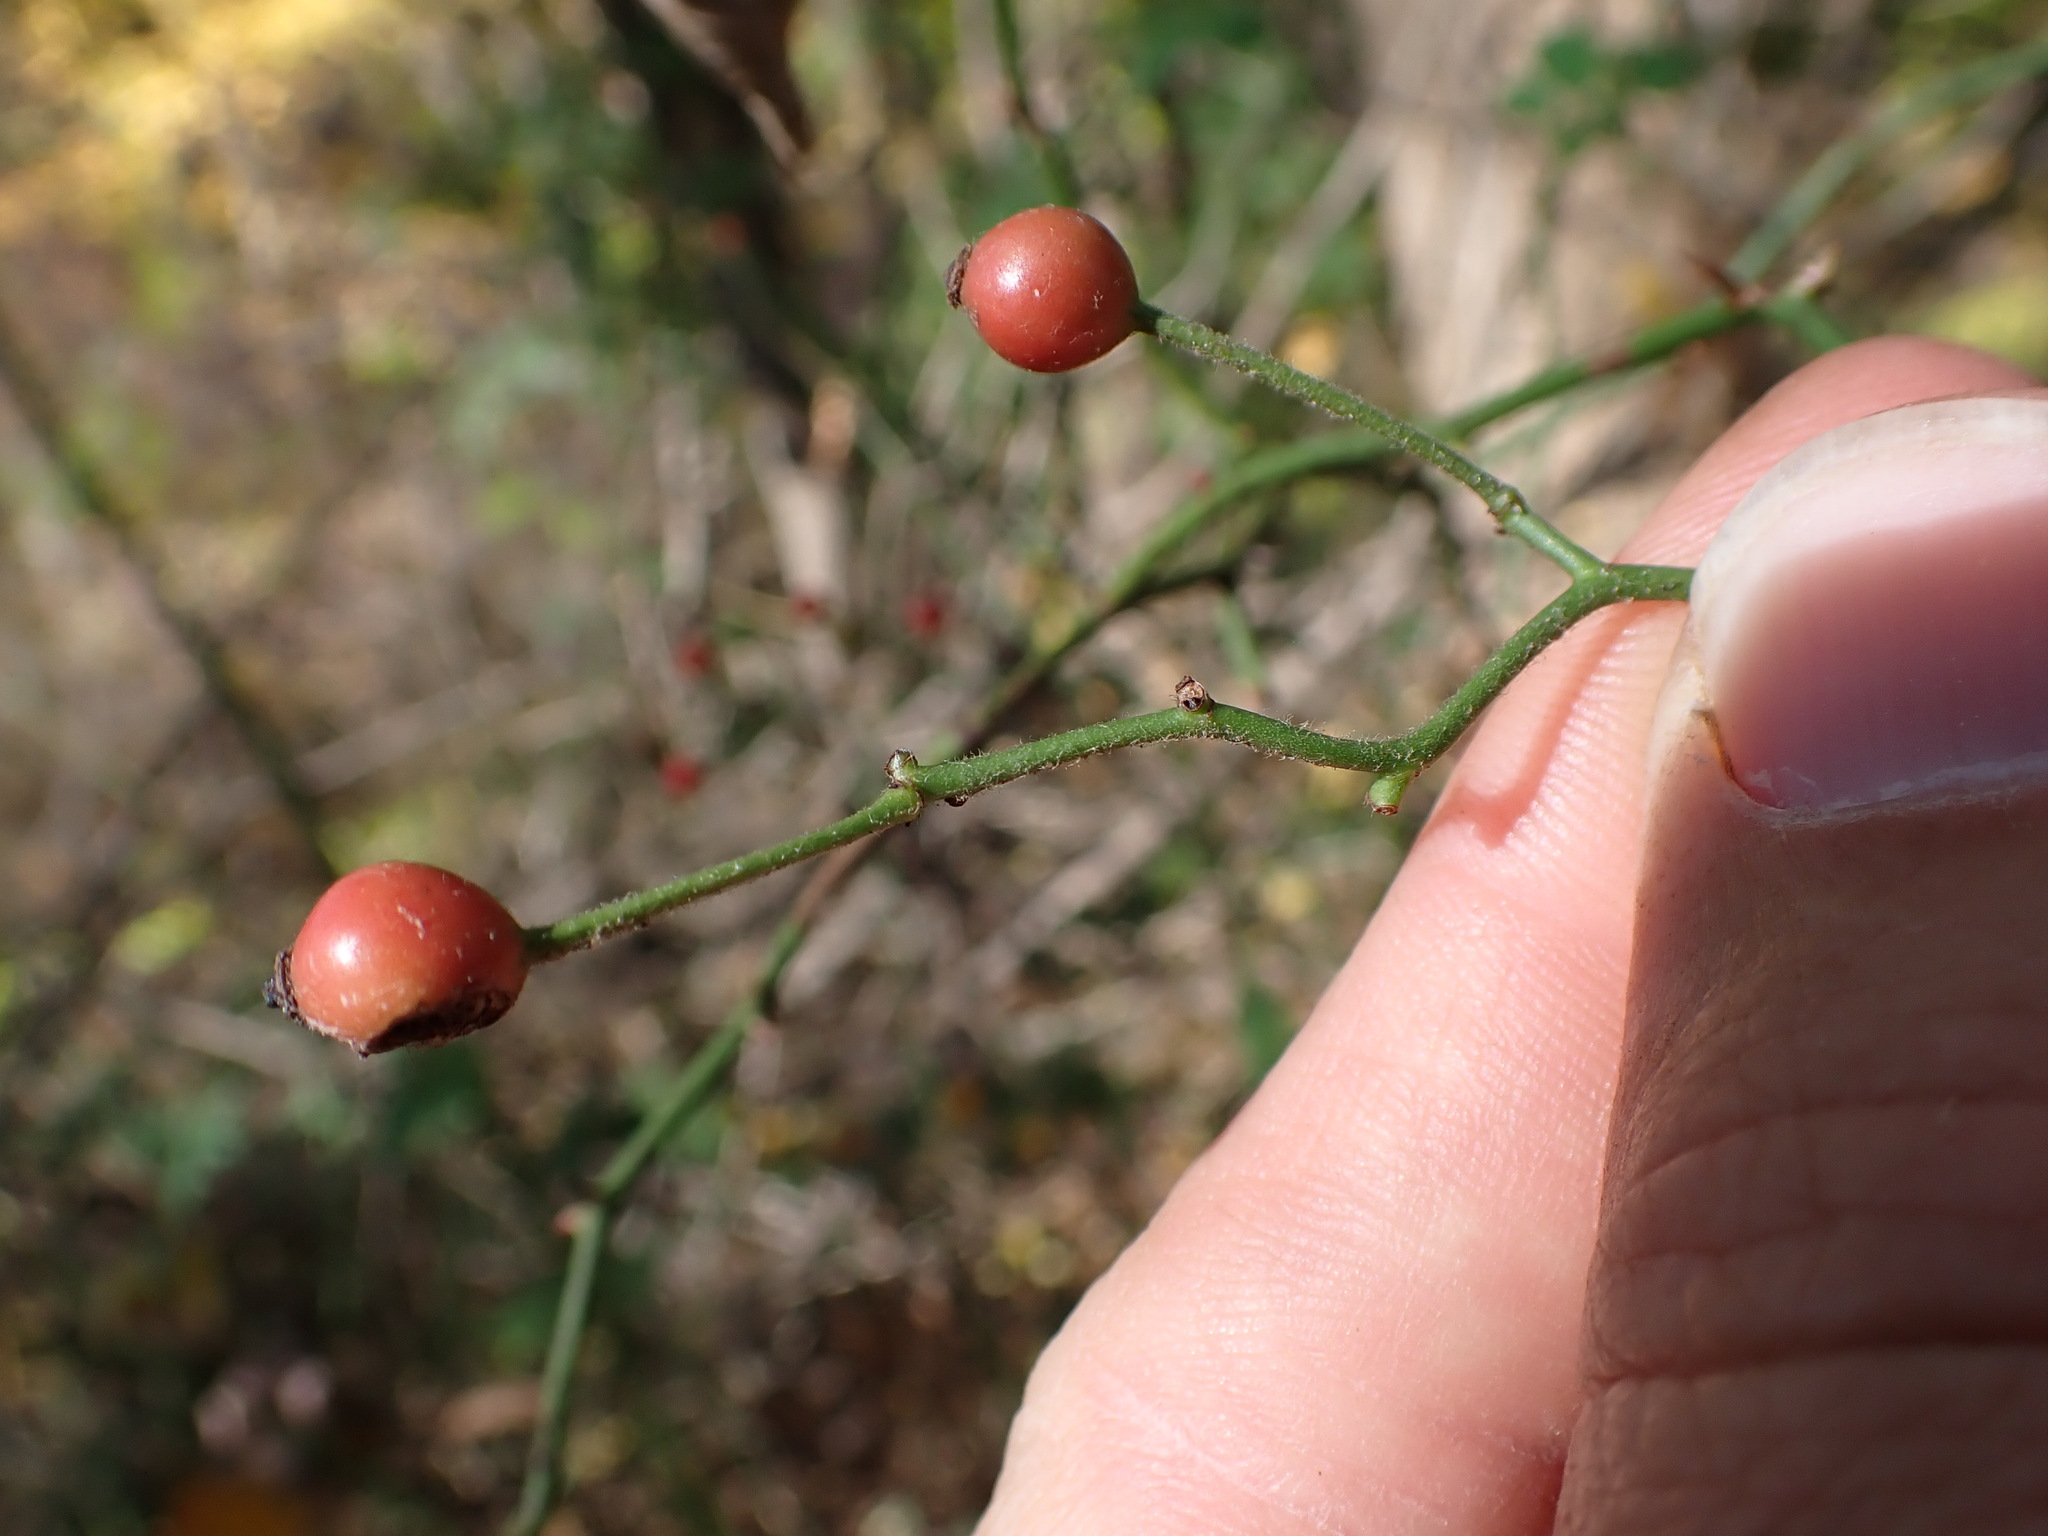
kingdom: Plantae
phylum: Tracheophyta
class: Magnoliopsida
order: Rosales
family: Rosaceae
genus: Rosa
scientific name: Rosa multiflora
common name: Multiflora rose
